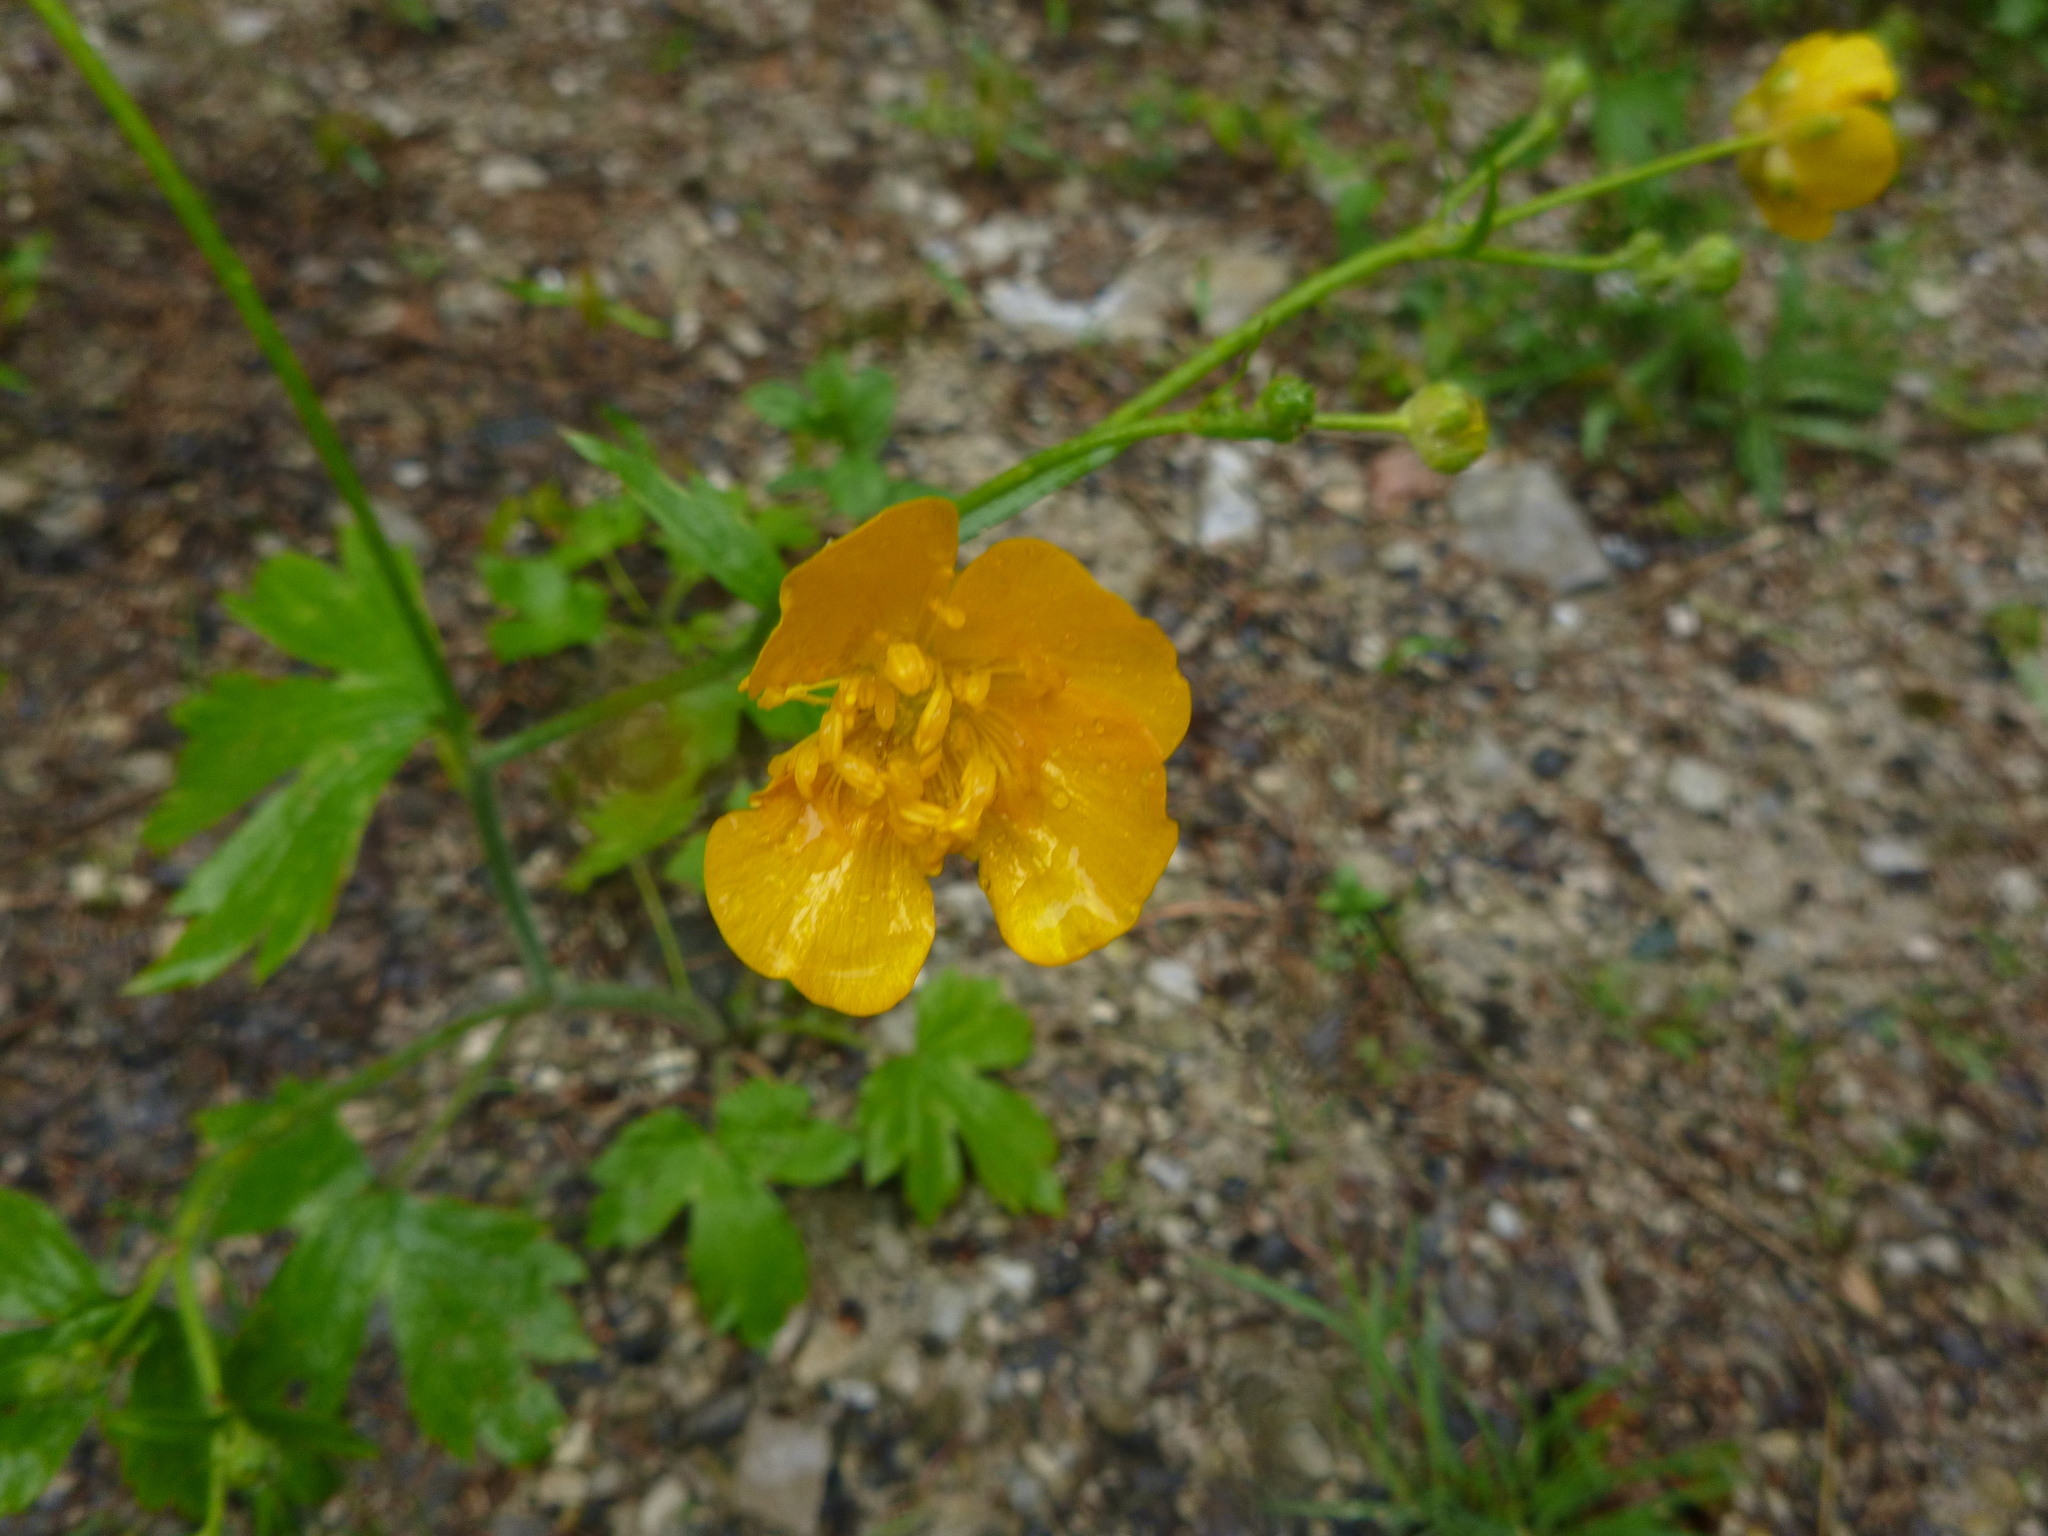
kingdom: Plantae
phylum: Tracheophyta
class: Magnoliopsida
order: Ranunculales
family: Ranunculaceae
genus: Ranunculus
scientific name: Ranunculus lanuginosus
